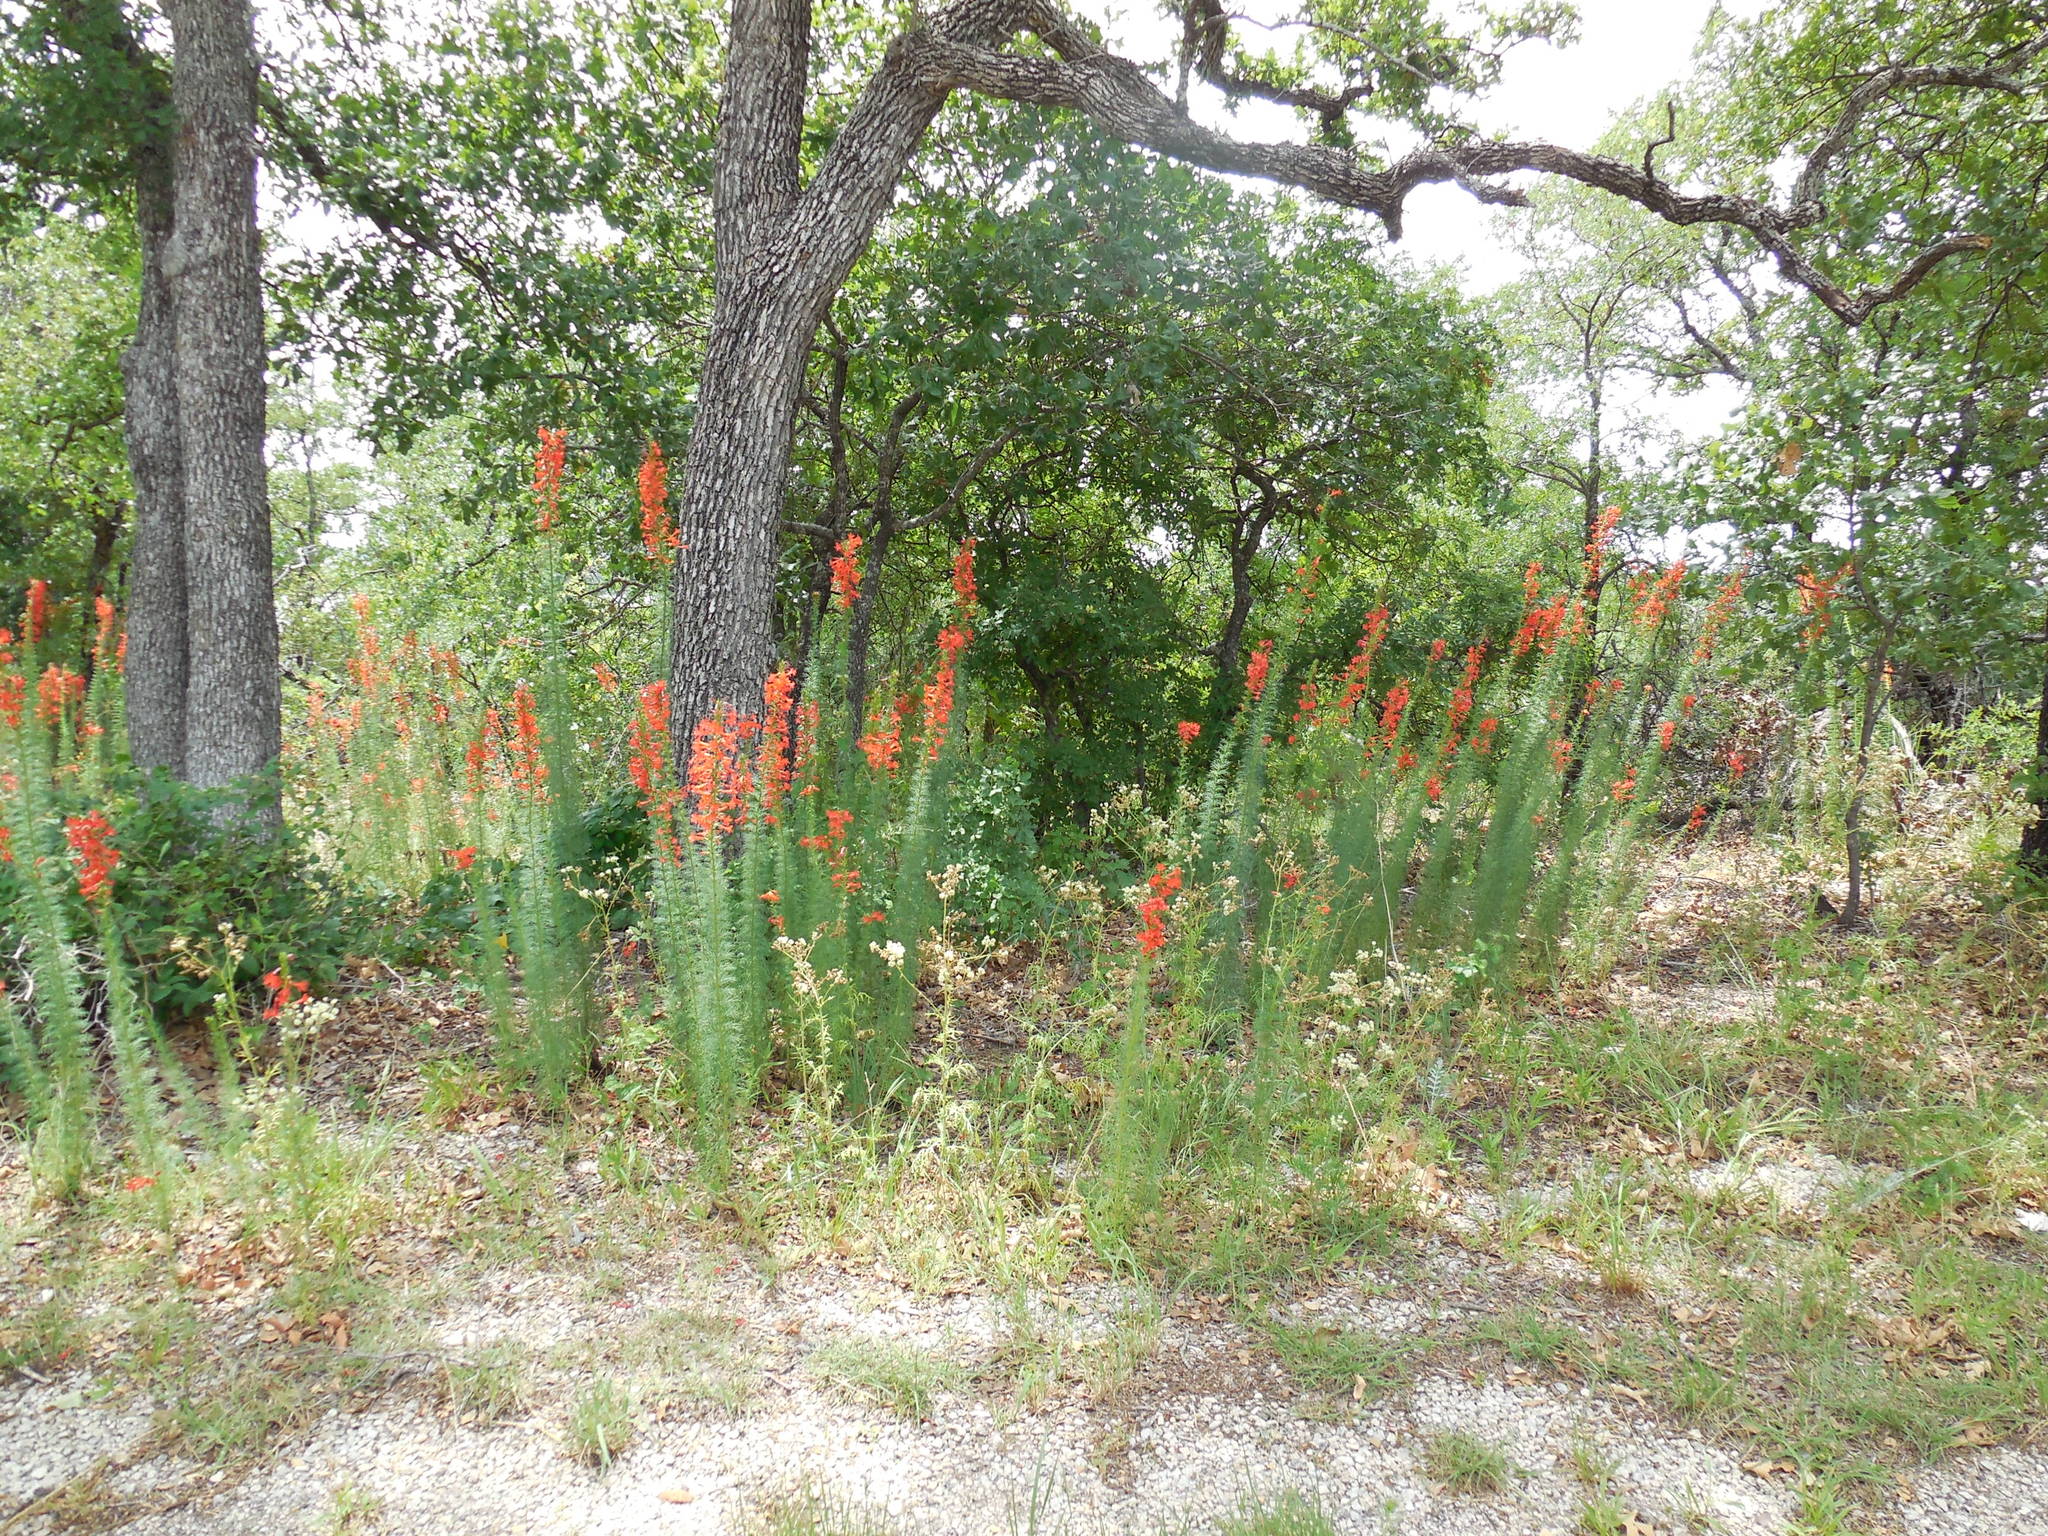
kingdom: Plantae
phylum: Tracheophyta
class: Magnoliopsida
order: Ericales
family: Polemoniaceae
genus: Ipomopsis
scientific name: Ipomopsis rubra
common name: Skyrocket
